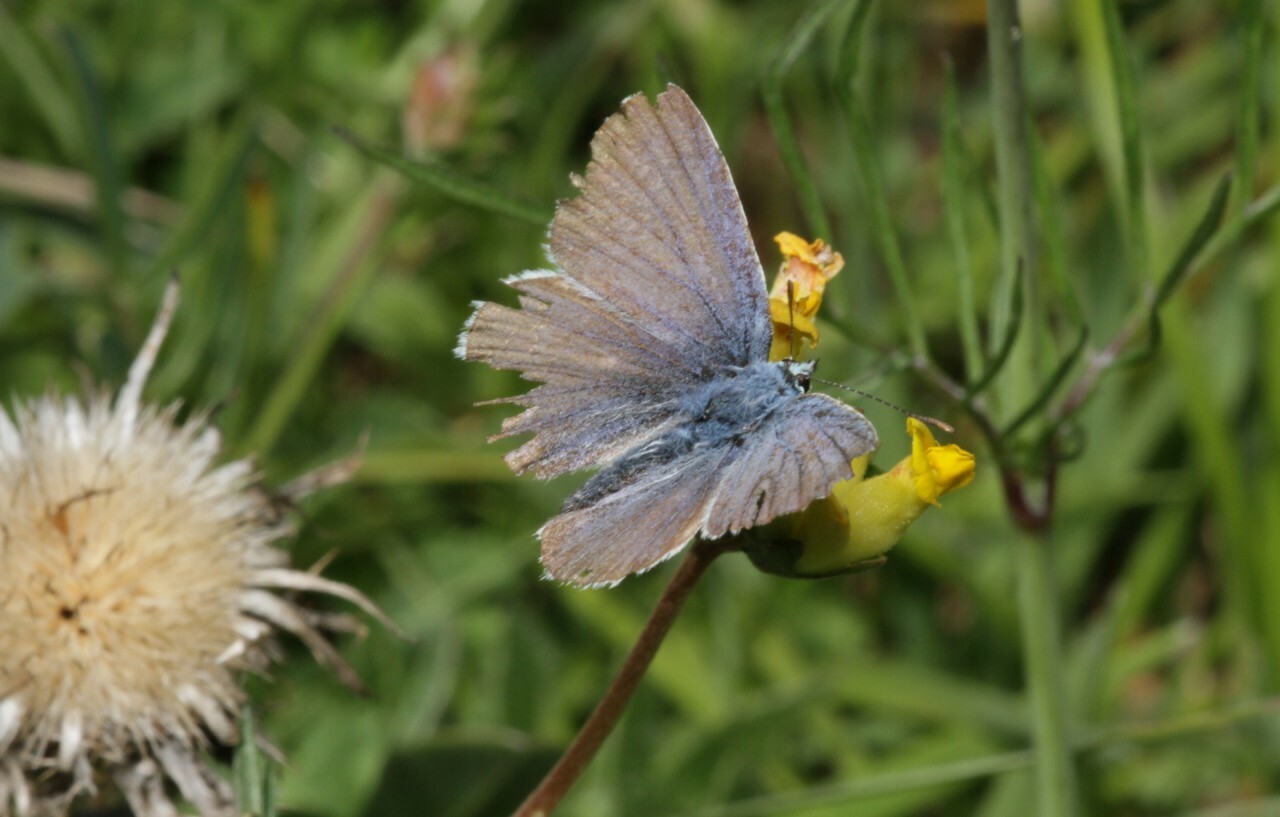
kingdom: Animalia
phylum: Arthropoda
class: Insecta
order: Lepidoptera
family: Lycaenidae
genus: Polyommatus
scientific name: Polyommatus icarus
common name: Common blue
